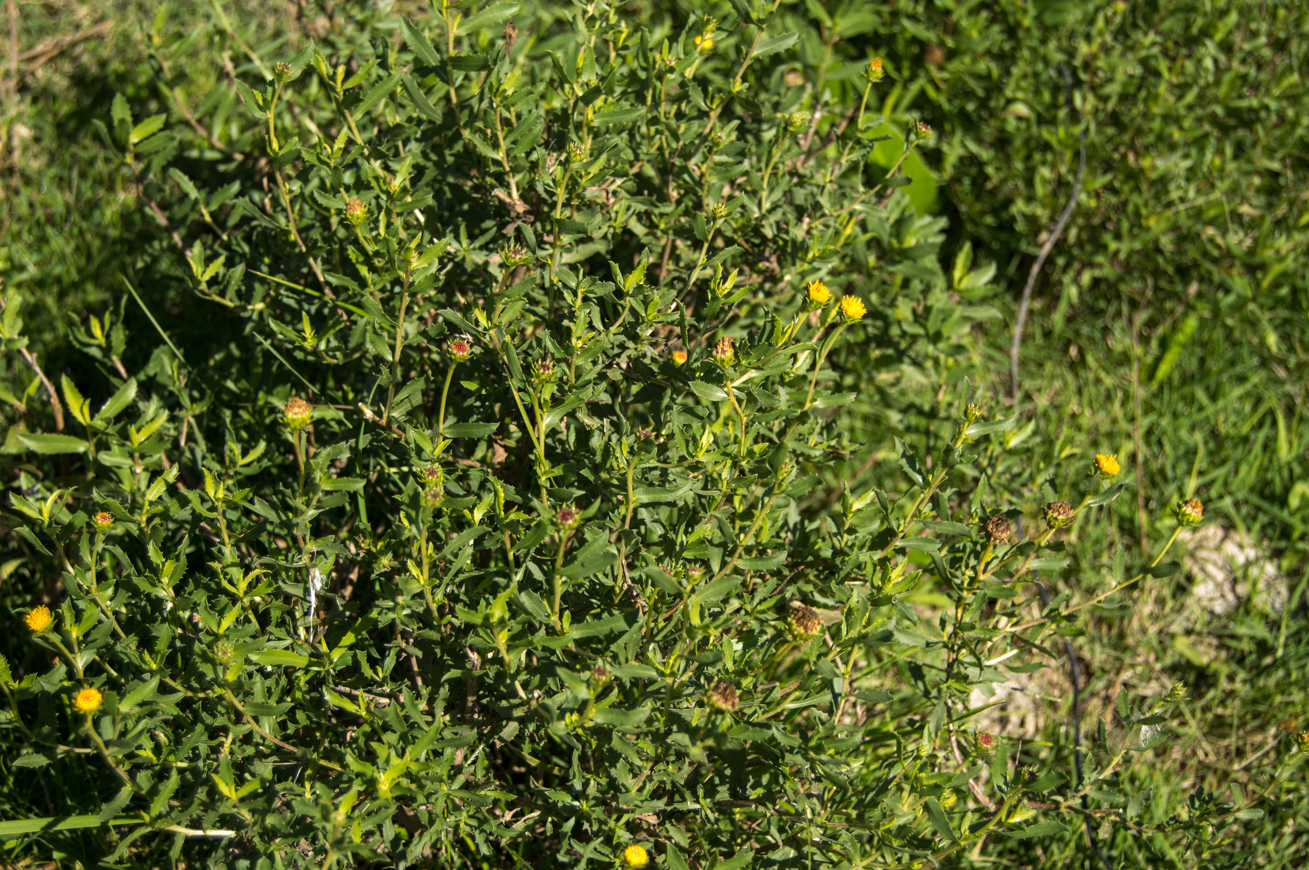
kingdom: Plantae
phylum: Tracheophyta
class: Magnoliopsida
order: Asterales
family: Asteraceae
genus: Grindelia
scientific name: Grindelia pulchella
